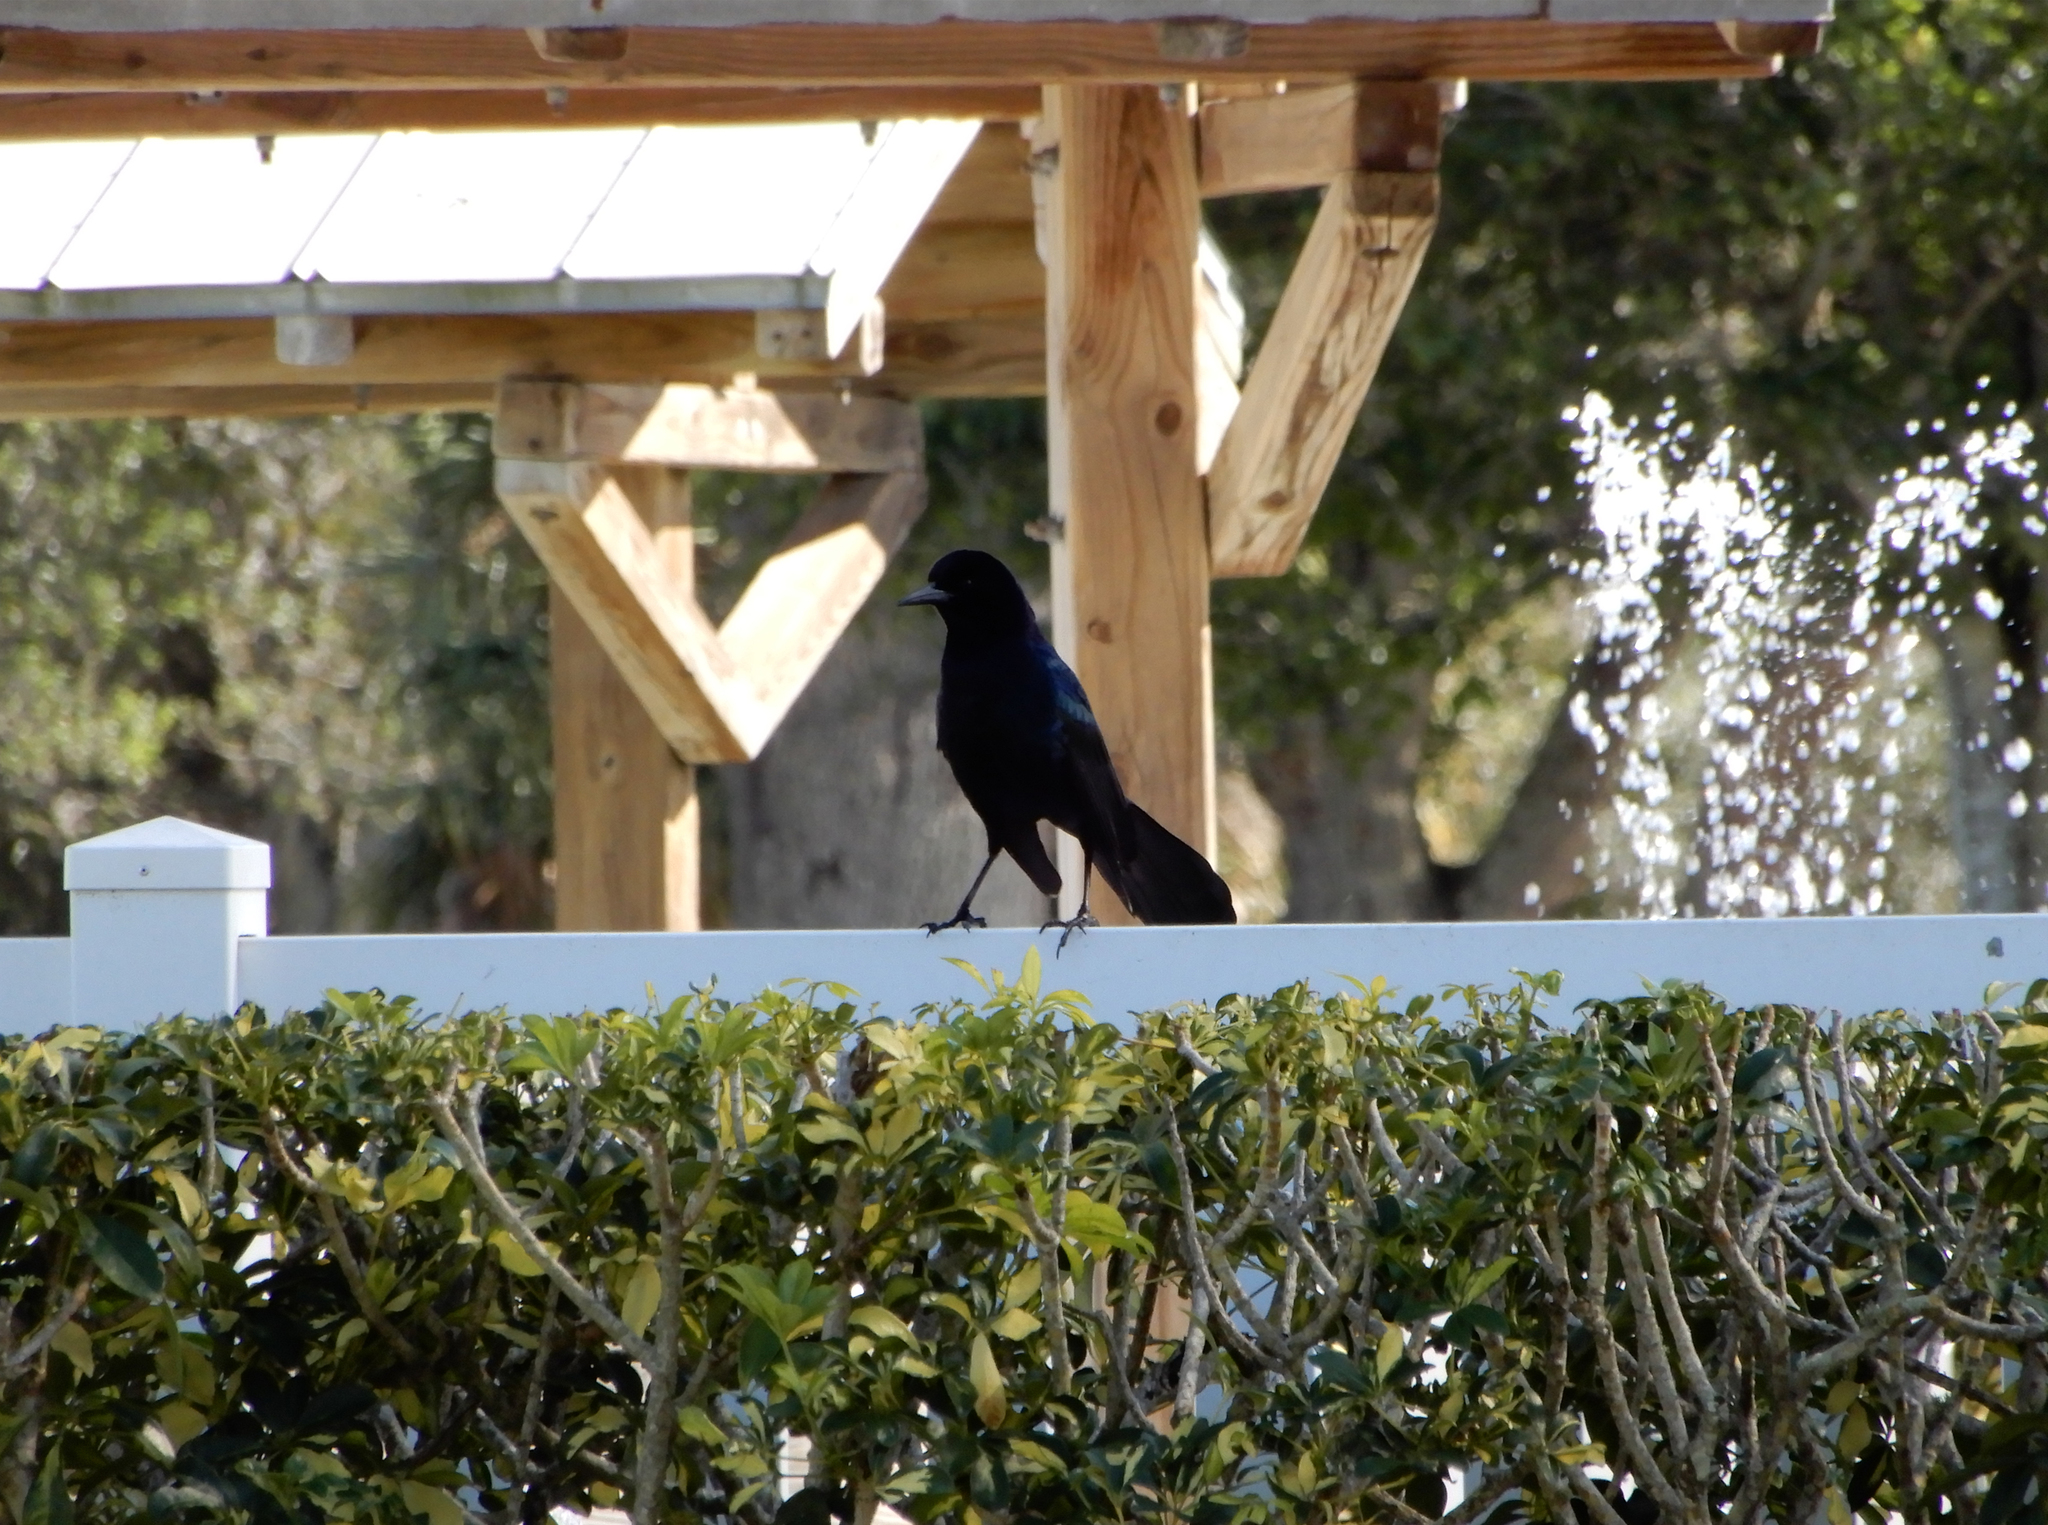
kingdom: Animalia
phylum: Chordata
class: Aves
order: Passeriformes
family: Icteridae
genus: Quiscalus
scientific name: Quiscalus major
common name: Boat-tailed grackle
